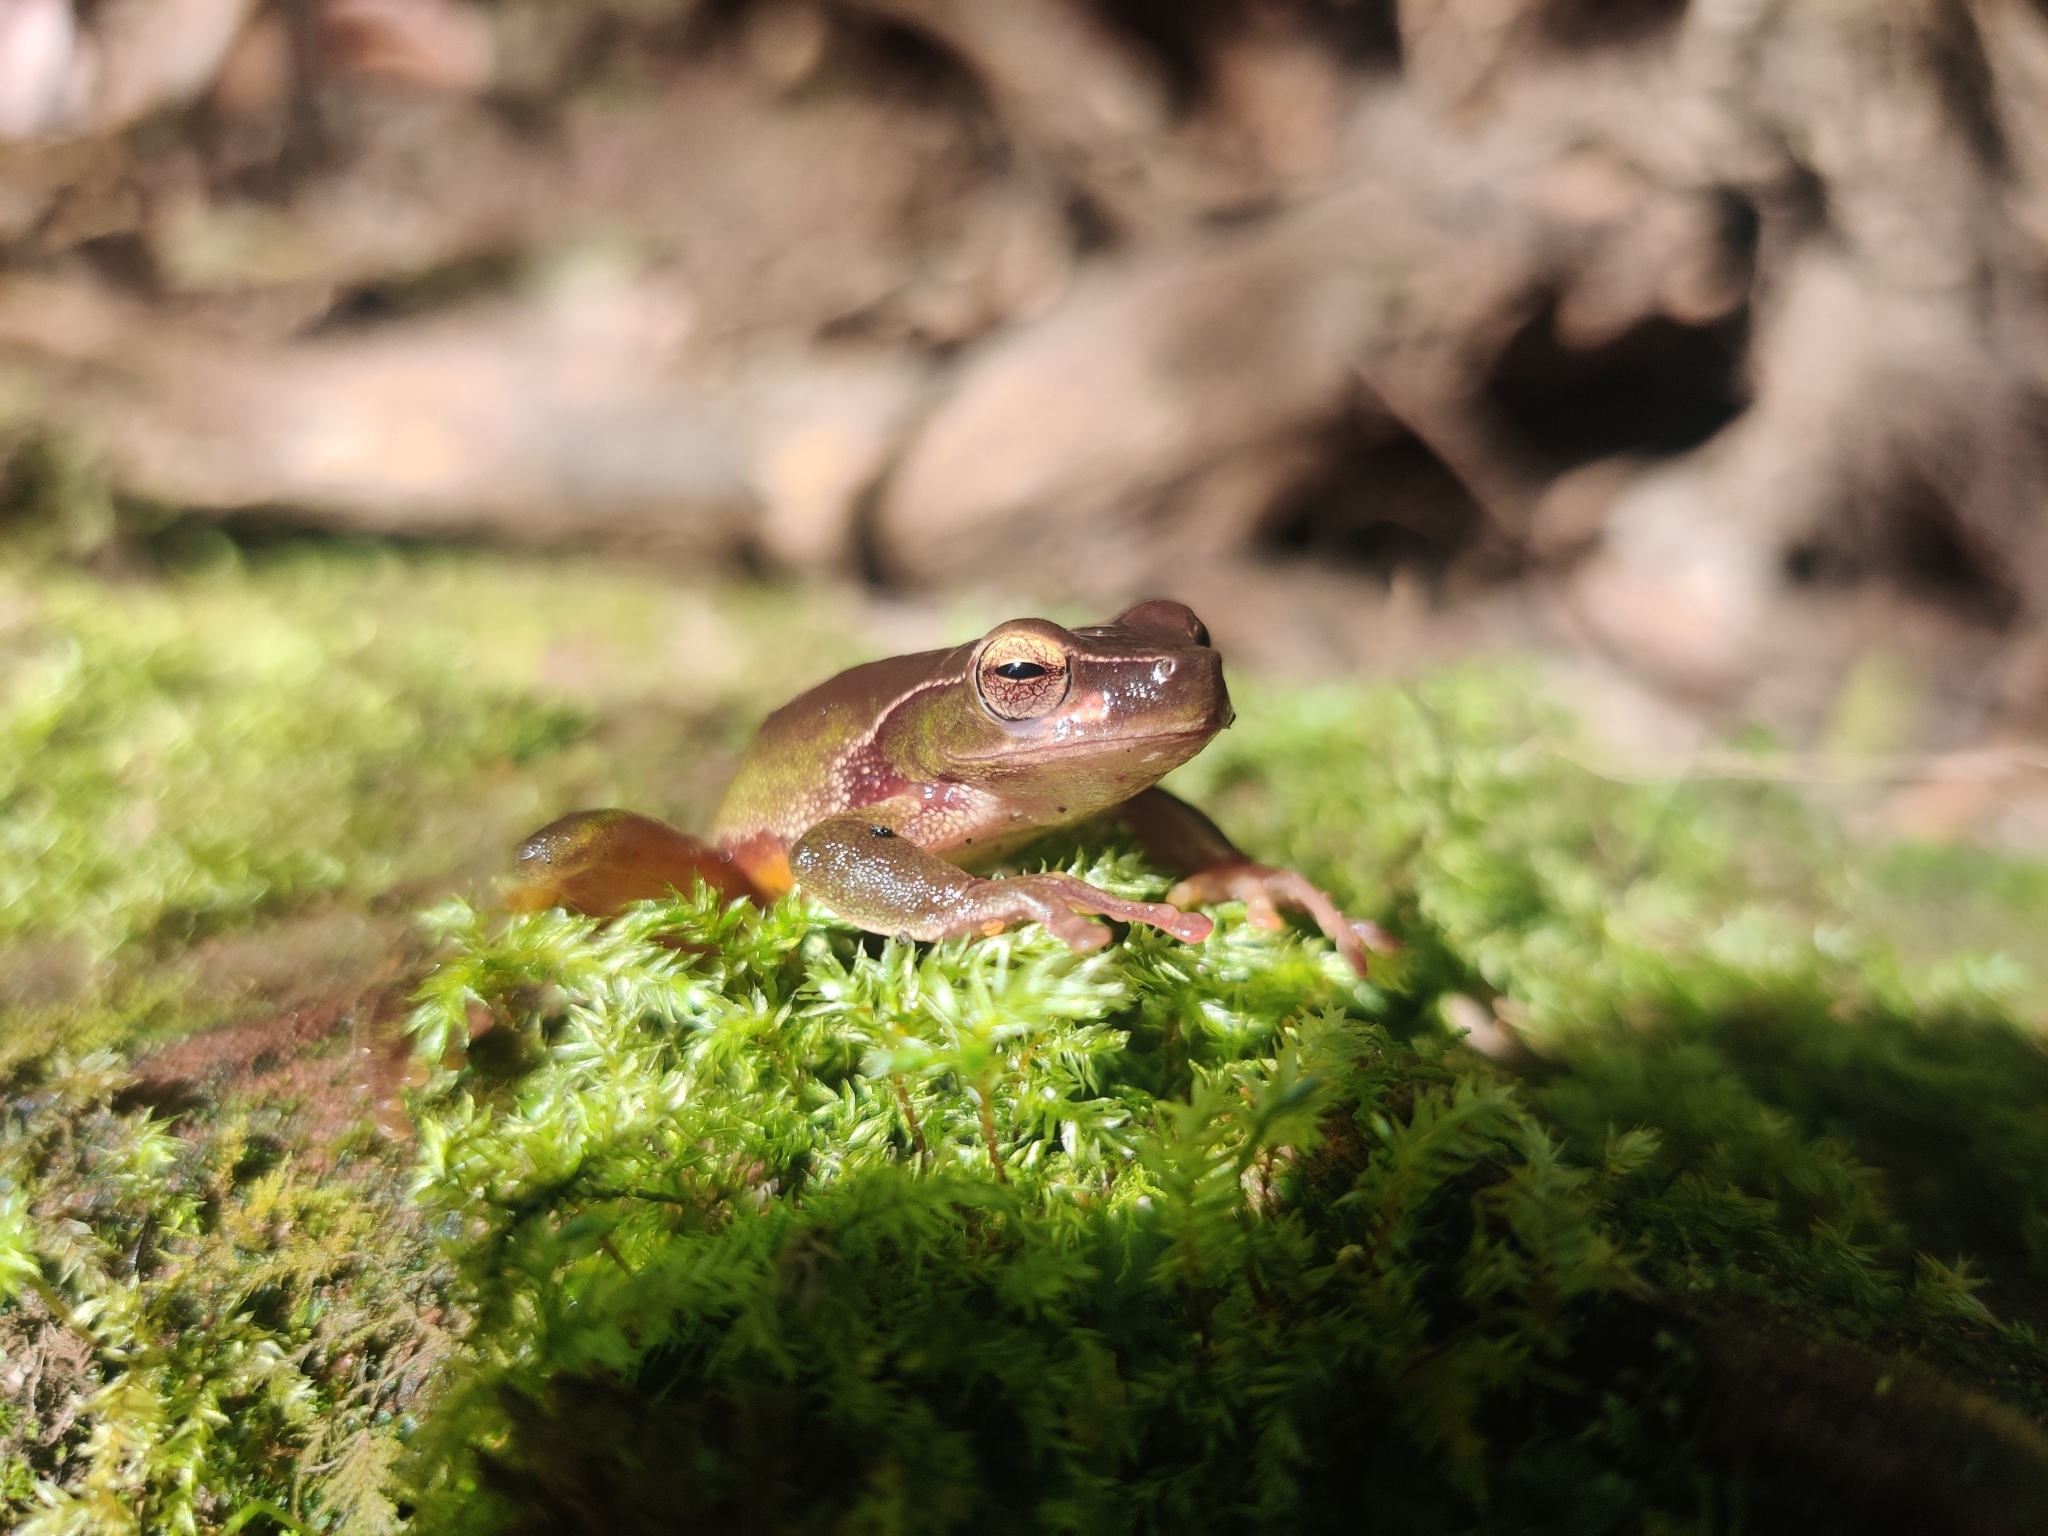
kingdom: Animalia
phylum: Chordata
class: Amphibia
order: Anura
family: Pelodryadidae
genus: Ranoidea
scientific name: Ranoidea phyllochroa
